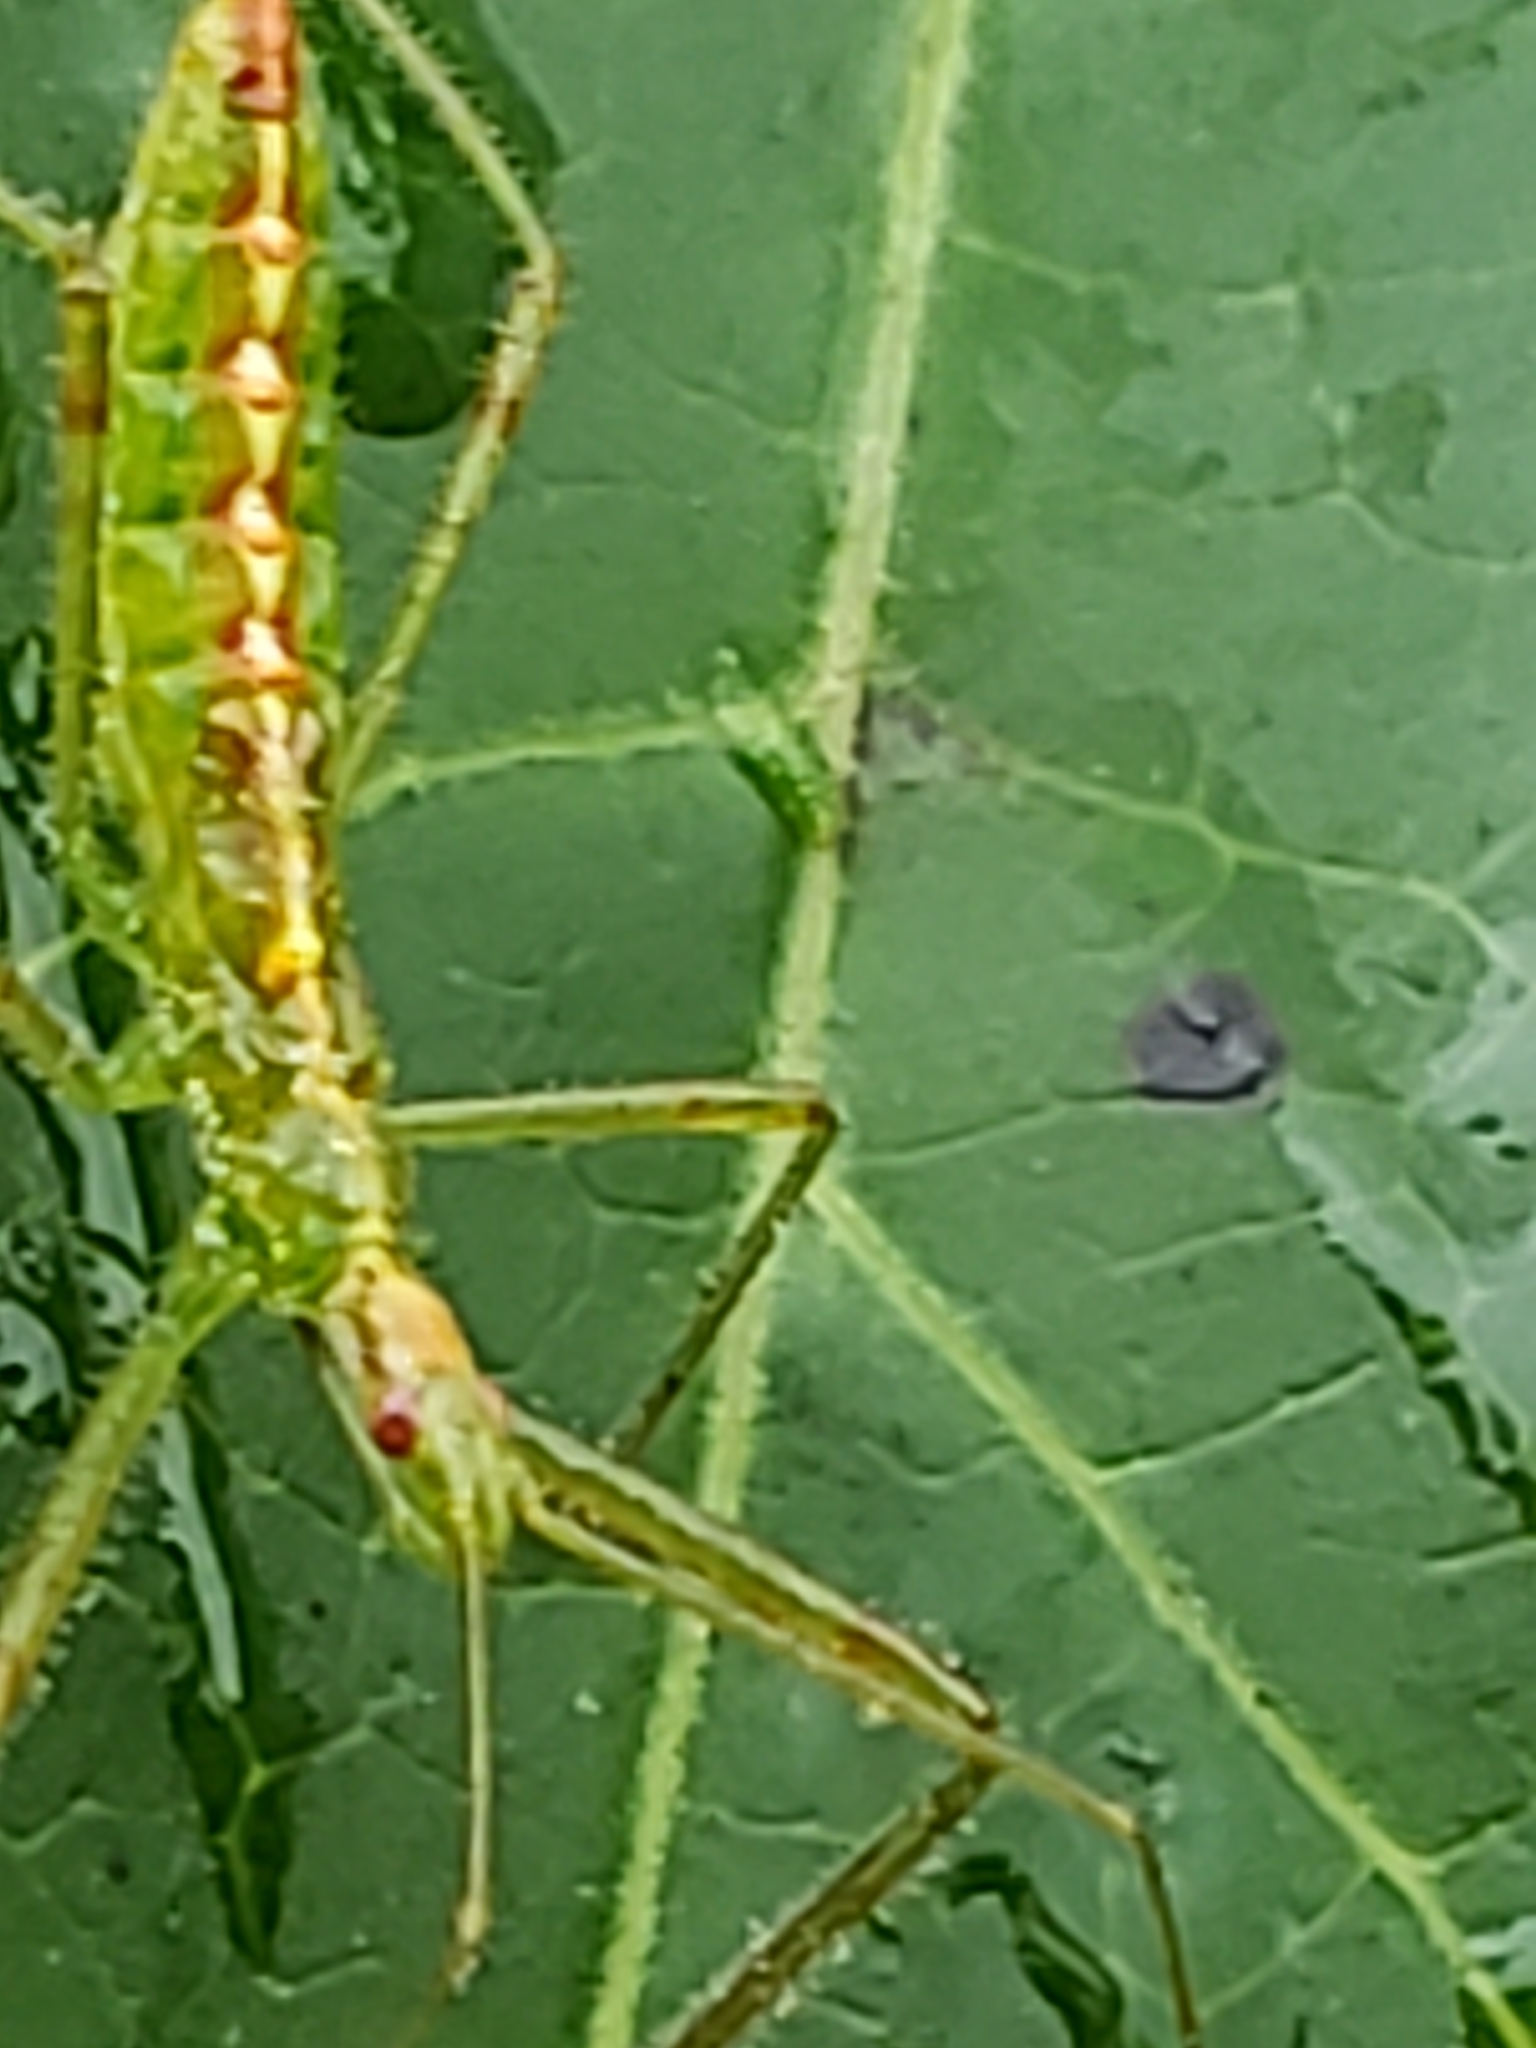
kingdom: Animalia
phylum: Arthropoda
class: Insecta
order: Hemiptera
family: Reduviidae
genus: Zelus
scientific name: Zelus luridus
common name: Pale green assassin bug
